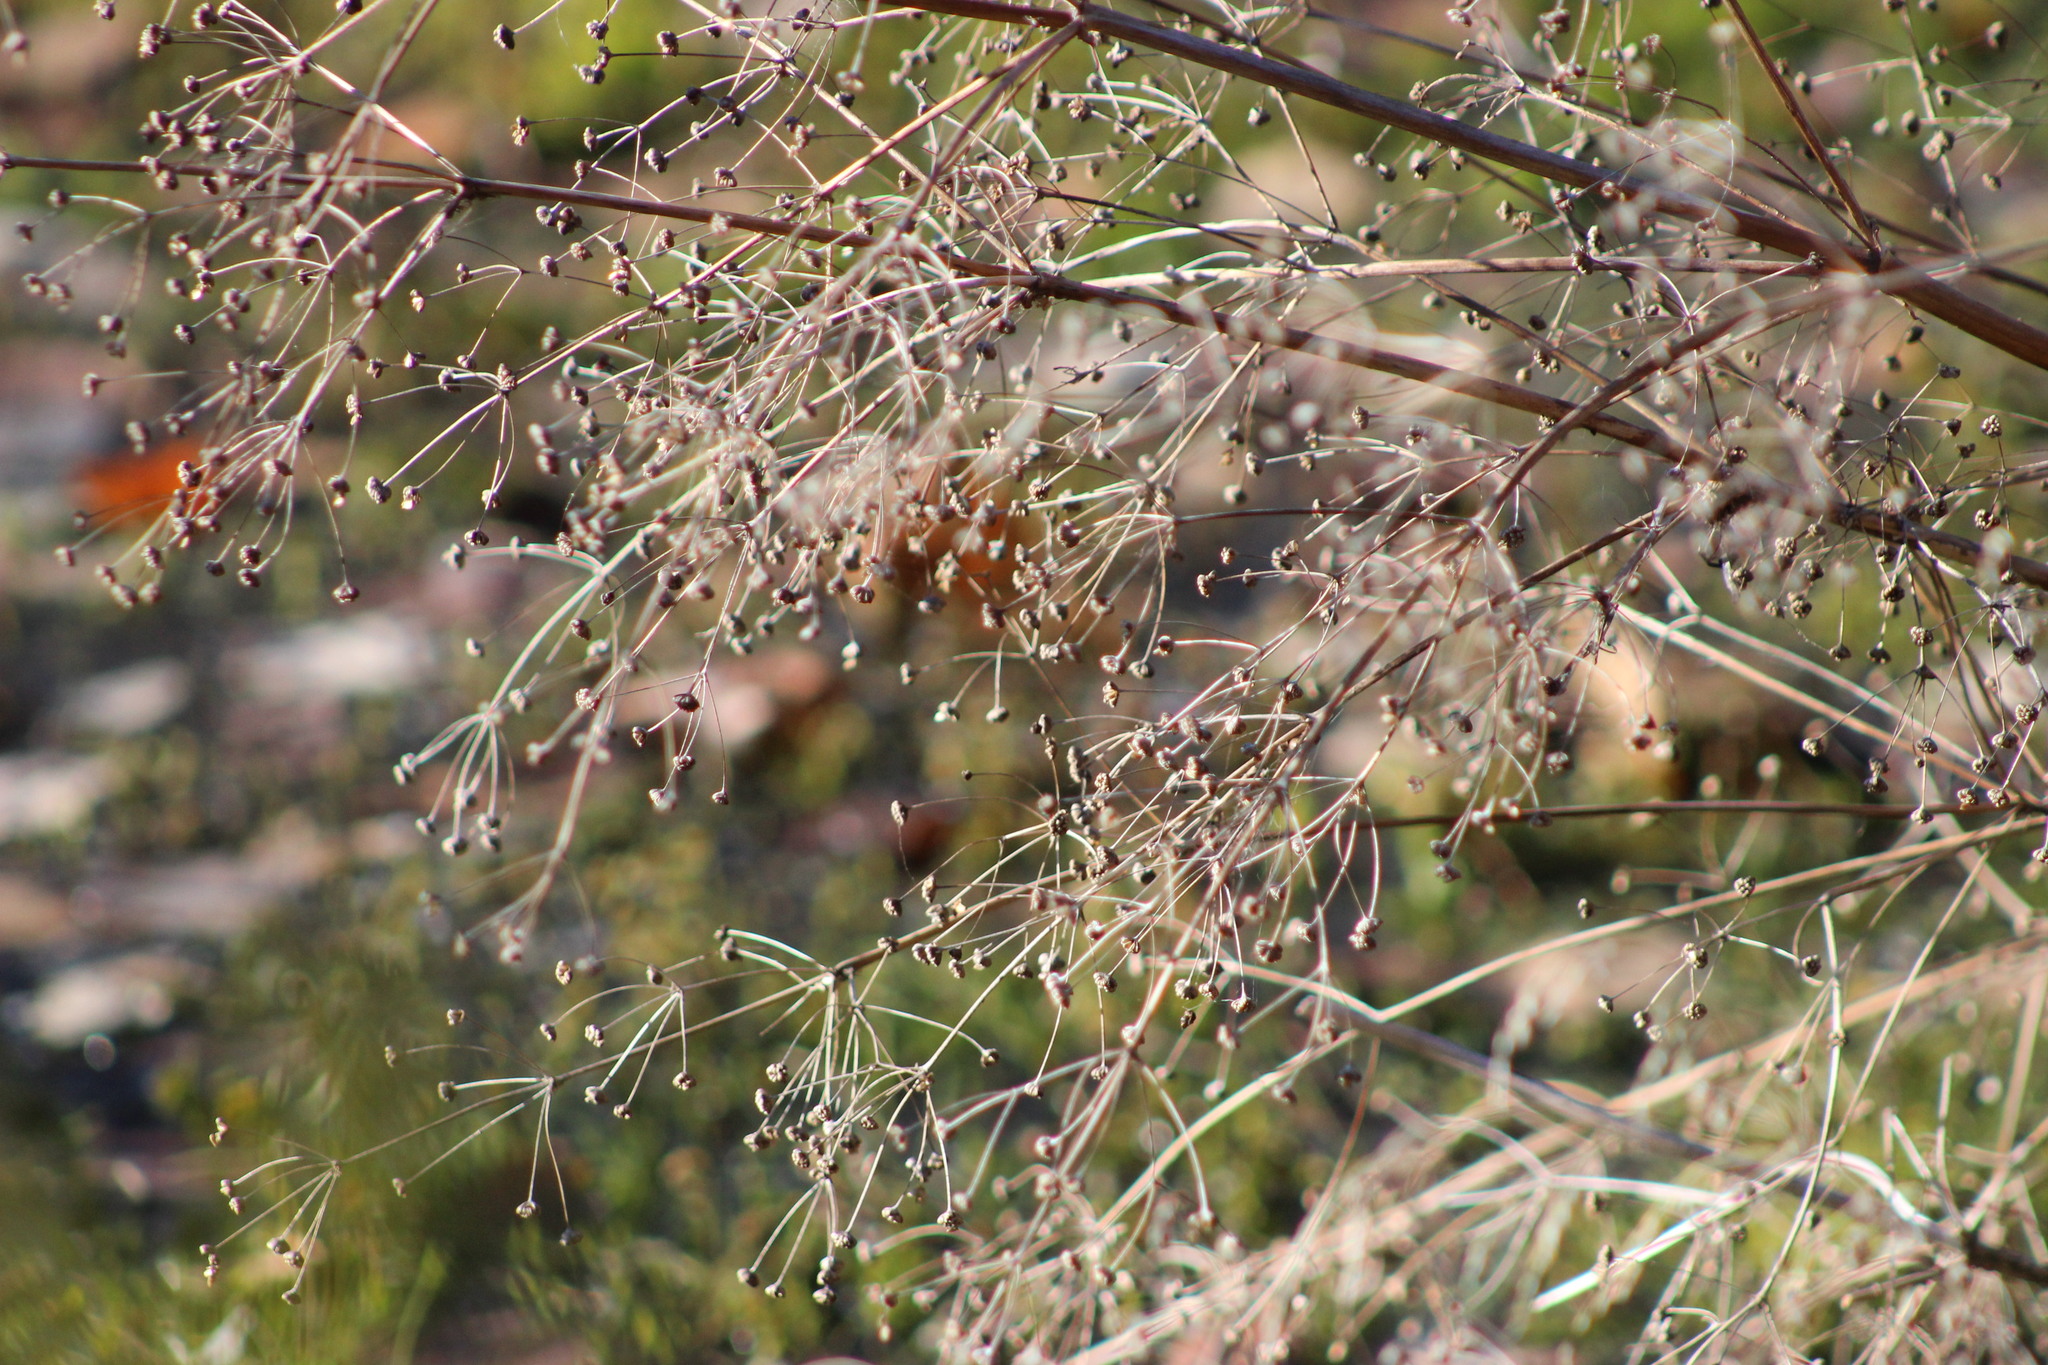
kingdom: Plantae
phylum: Tracheophyta
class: Liliopsida
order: Alismatales
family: Alismataceae
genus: Alisma
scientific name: Alisma plantago-aquatica
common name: Water-plantain
